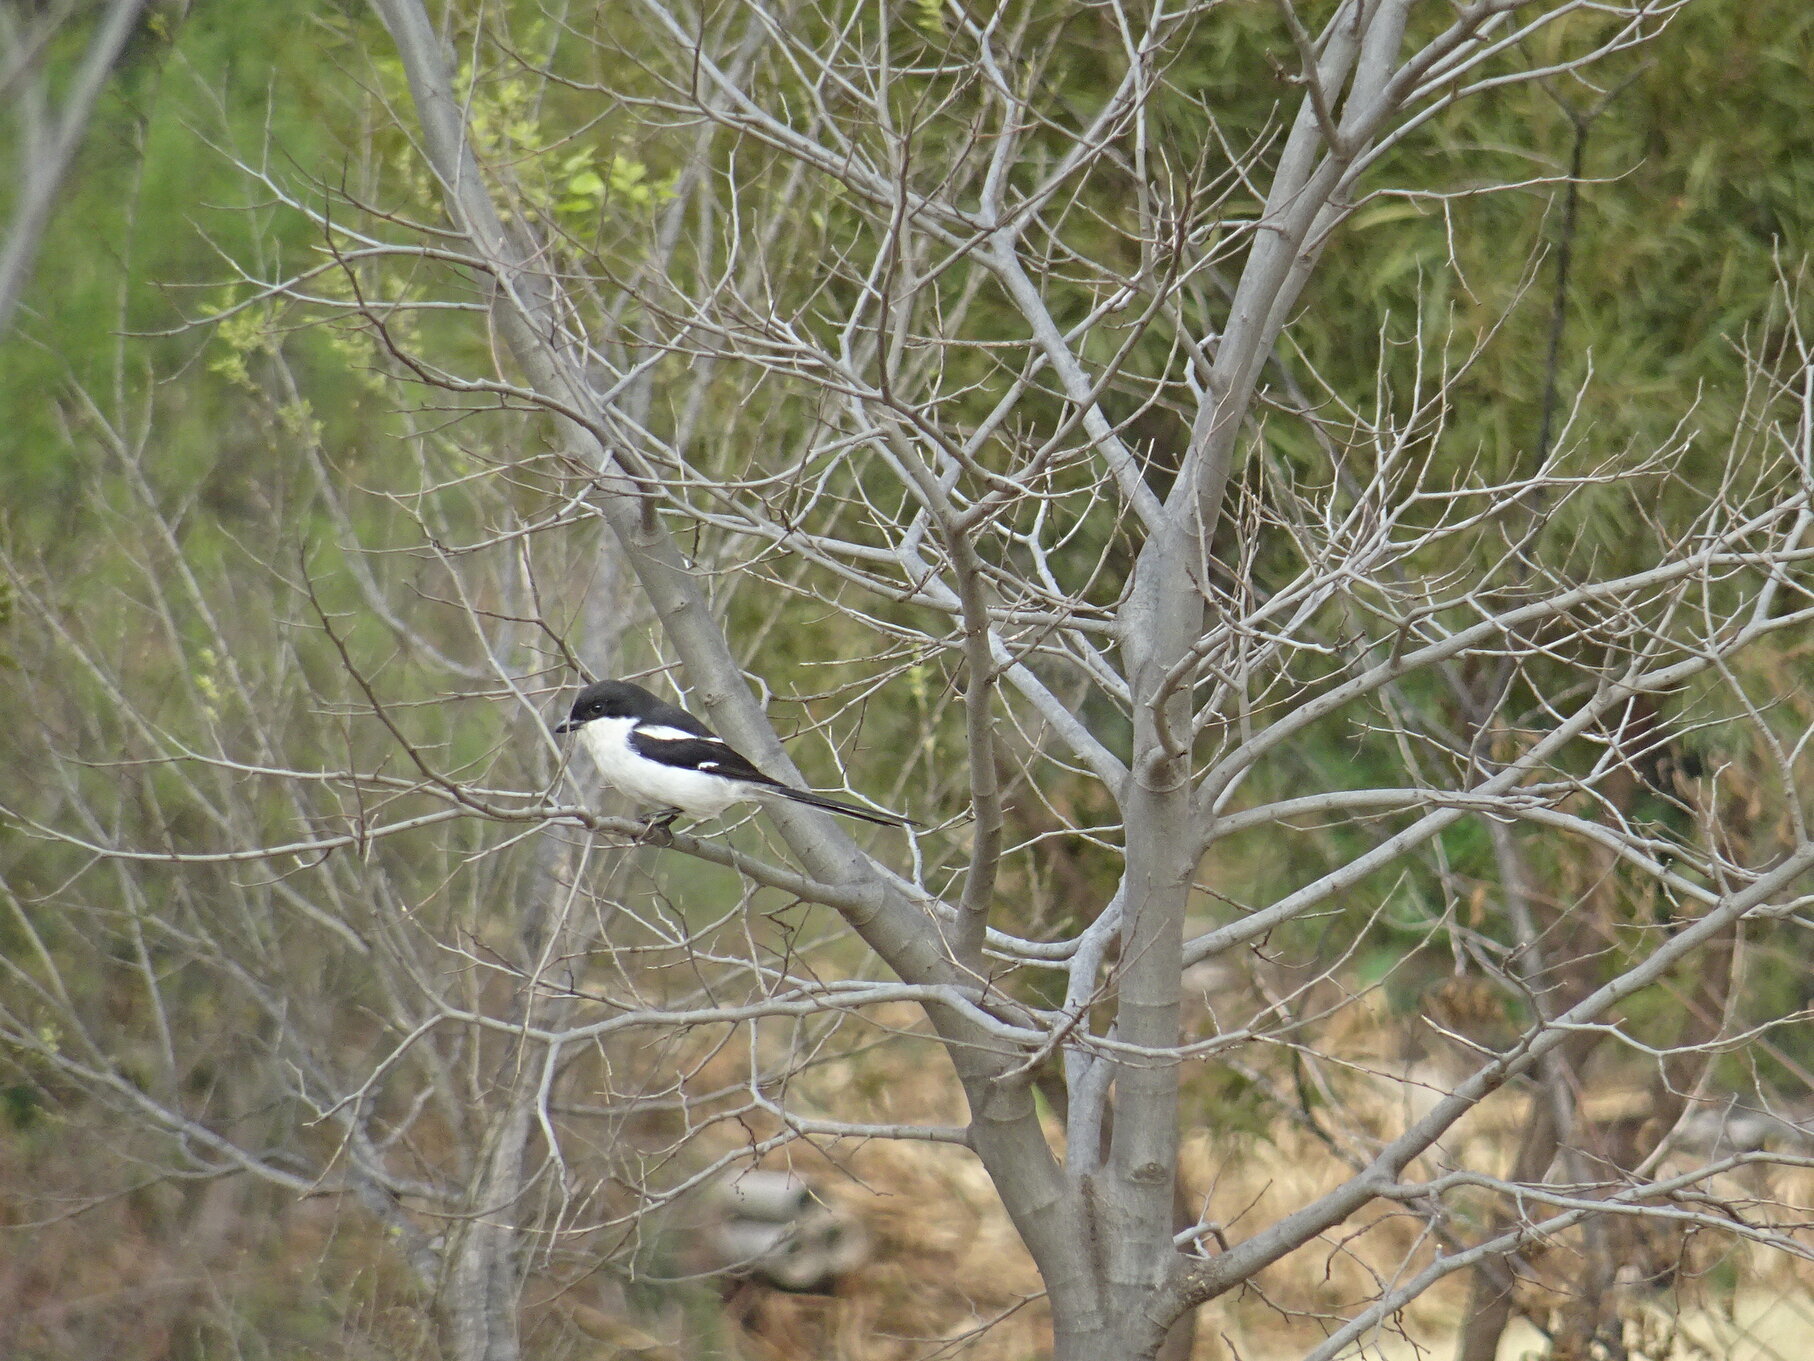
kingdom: Animalia
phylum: Chordata
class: Aves
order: Passeriformes
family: Laniidae
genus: Lanius
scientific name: Lanius collaris
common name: Southern fiscal
